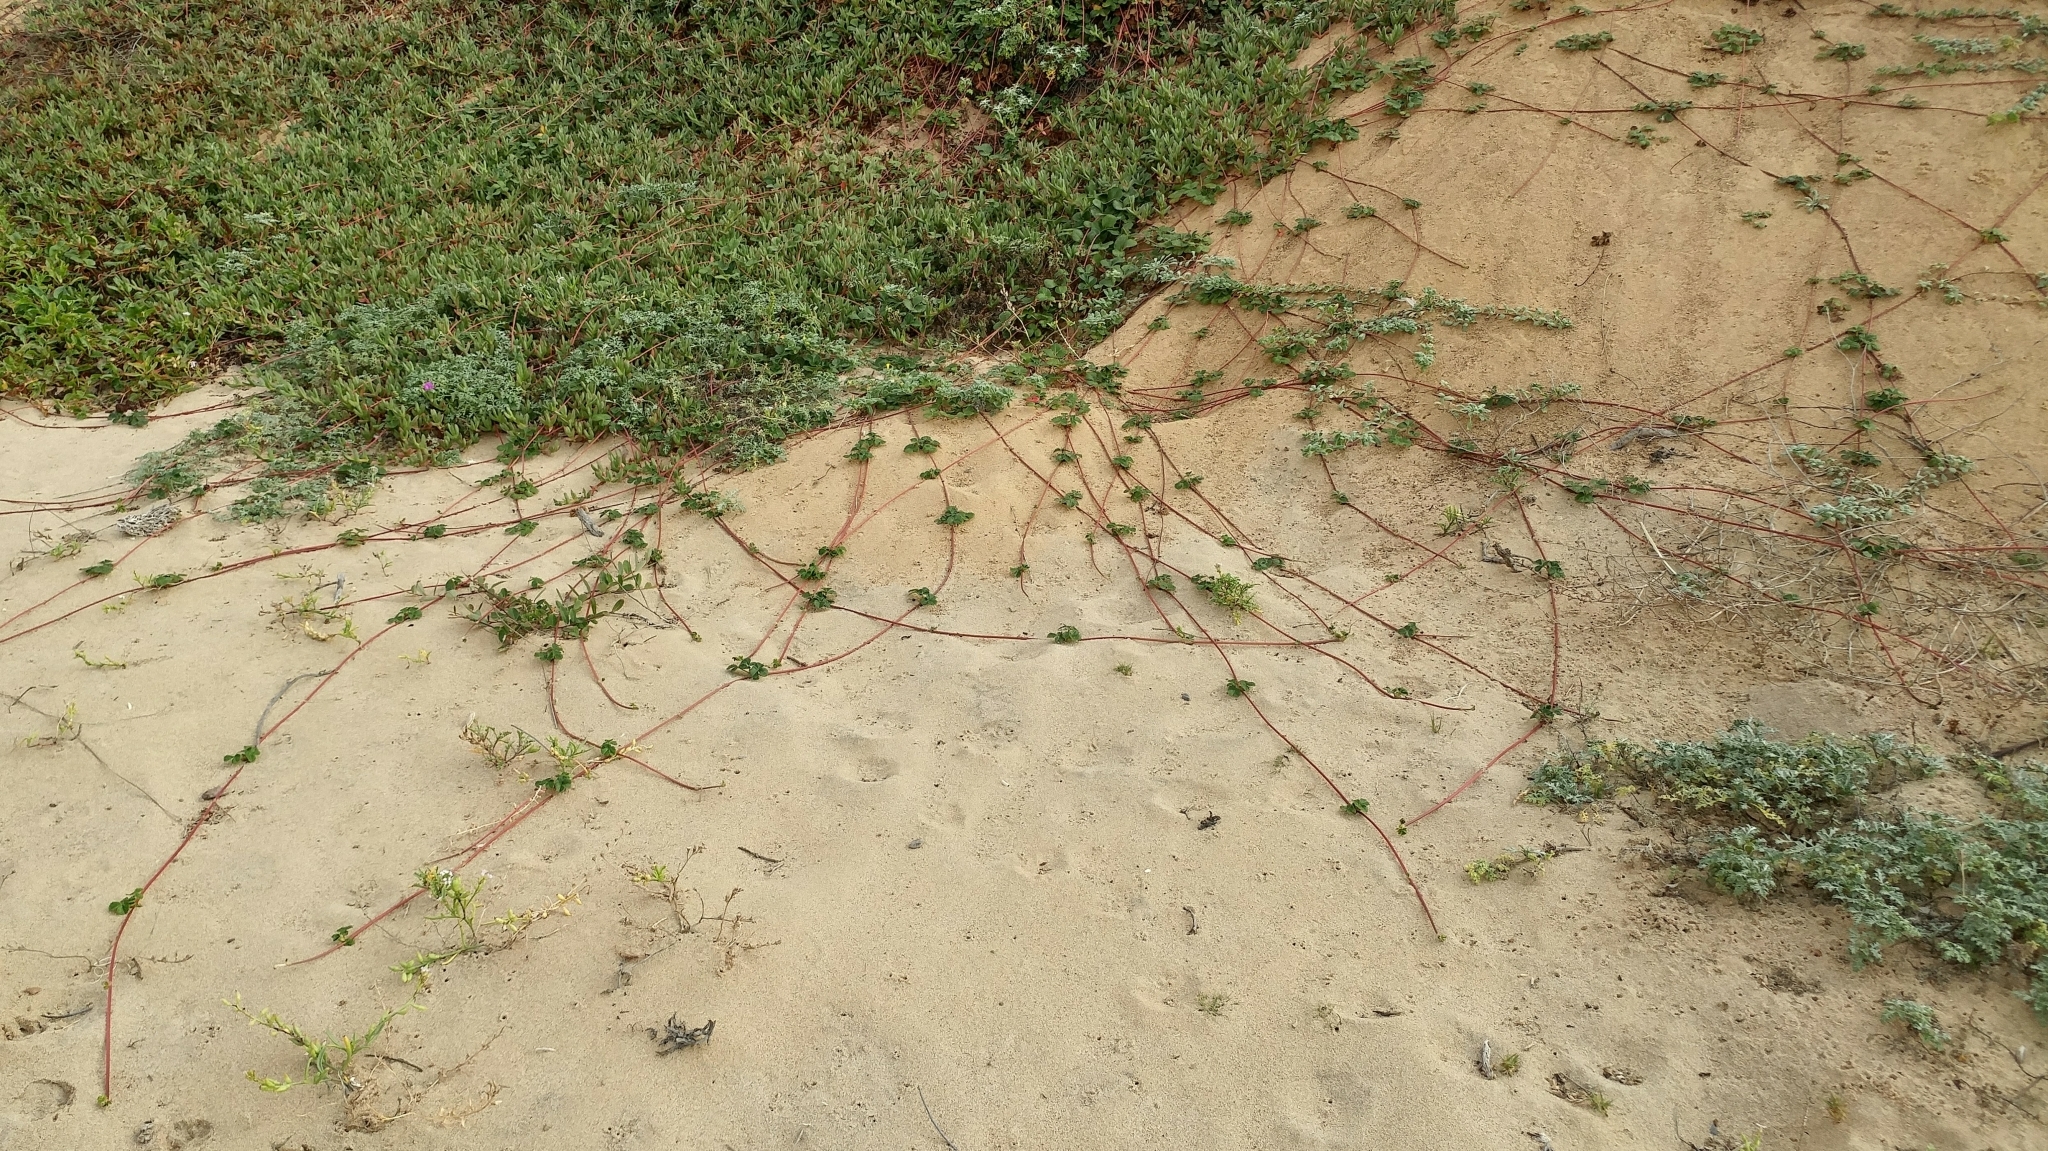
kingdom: Plantae
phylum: Tracheophyta
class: Magnoliopsida
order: Rosales
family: Rosaceae
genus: Fragaria
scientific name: Fragaria chiloensis
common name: Beach strawberry
